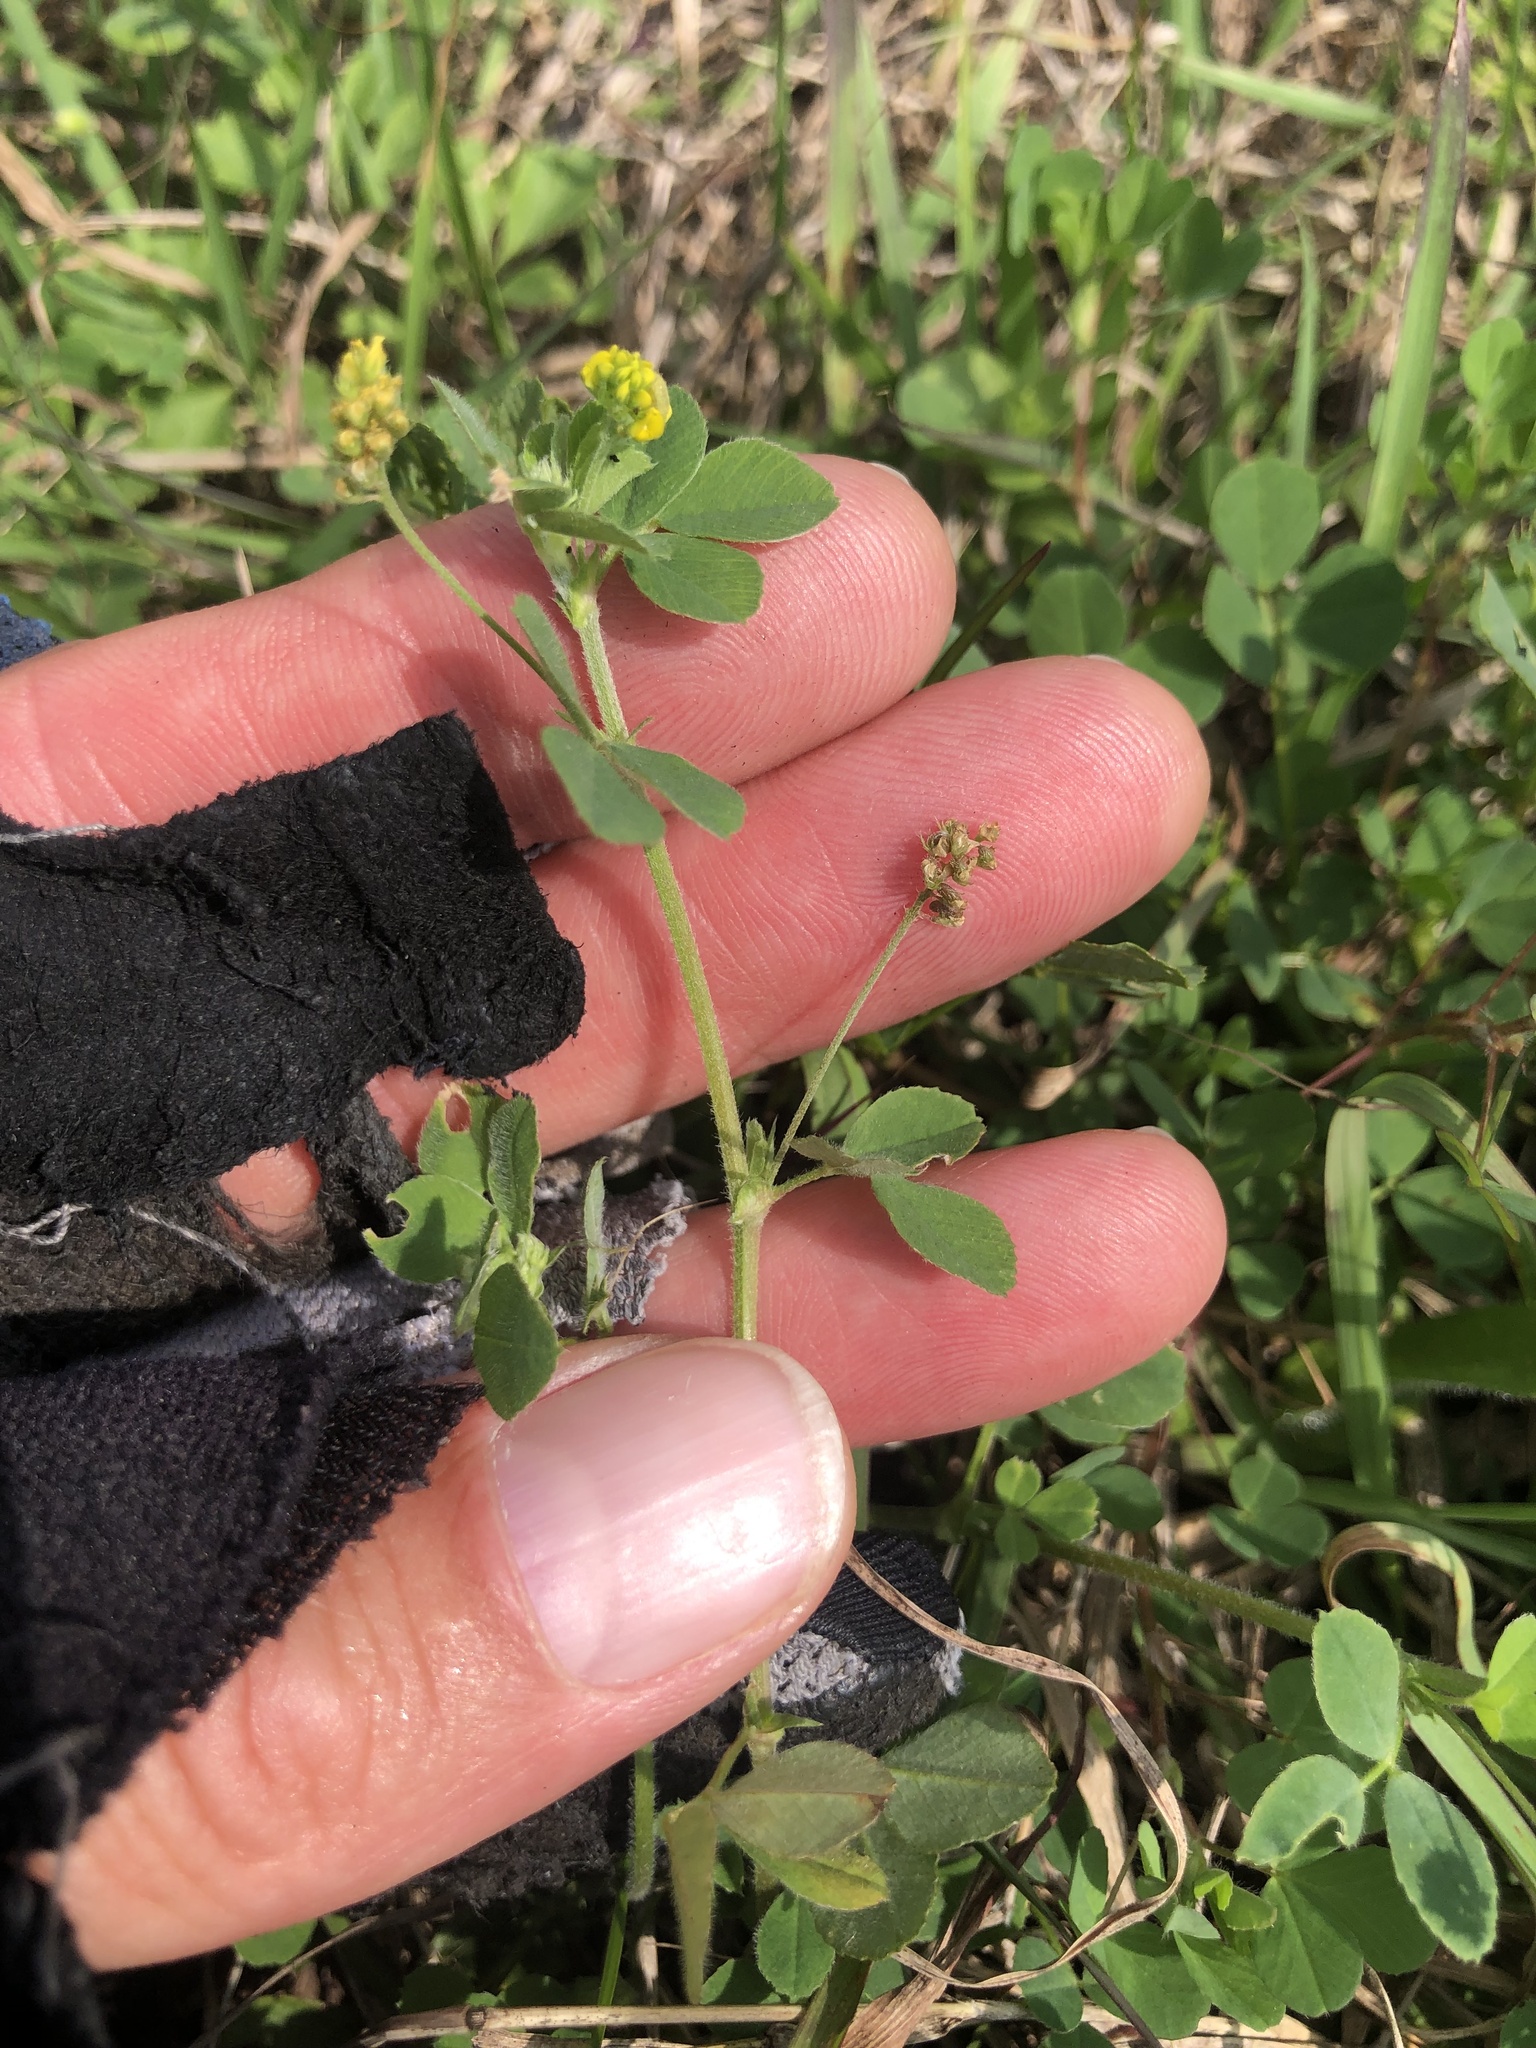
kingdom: Plantae
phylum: Tracheophyta
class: Magnoliopsida
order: Fabales
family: Fabaceae
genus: Medicago
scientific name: Medicago lupulina
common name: Black medick
